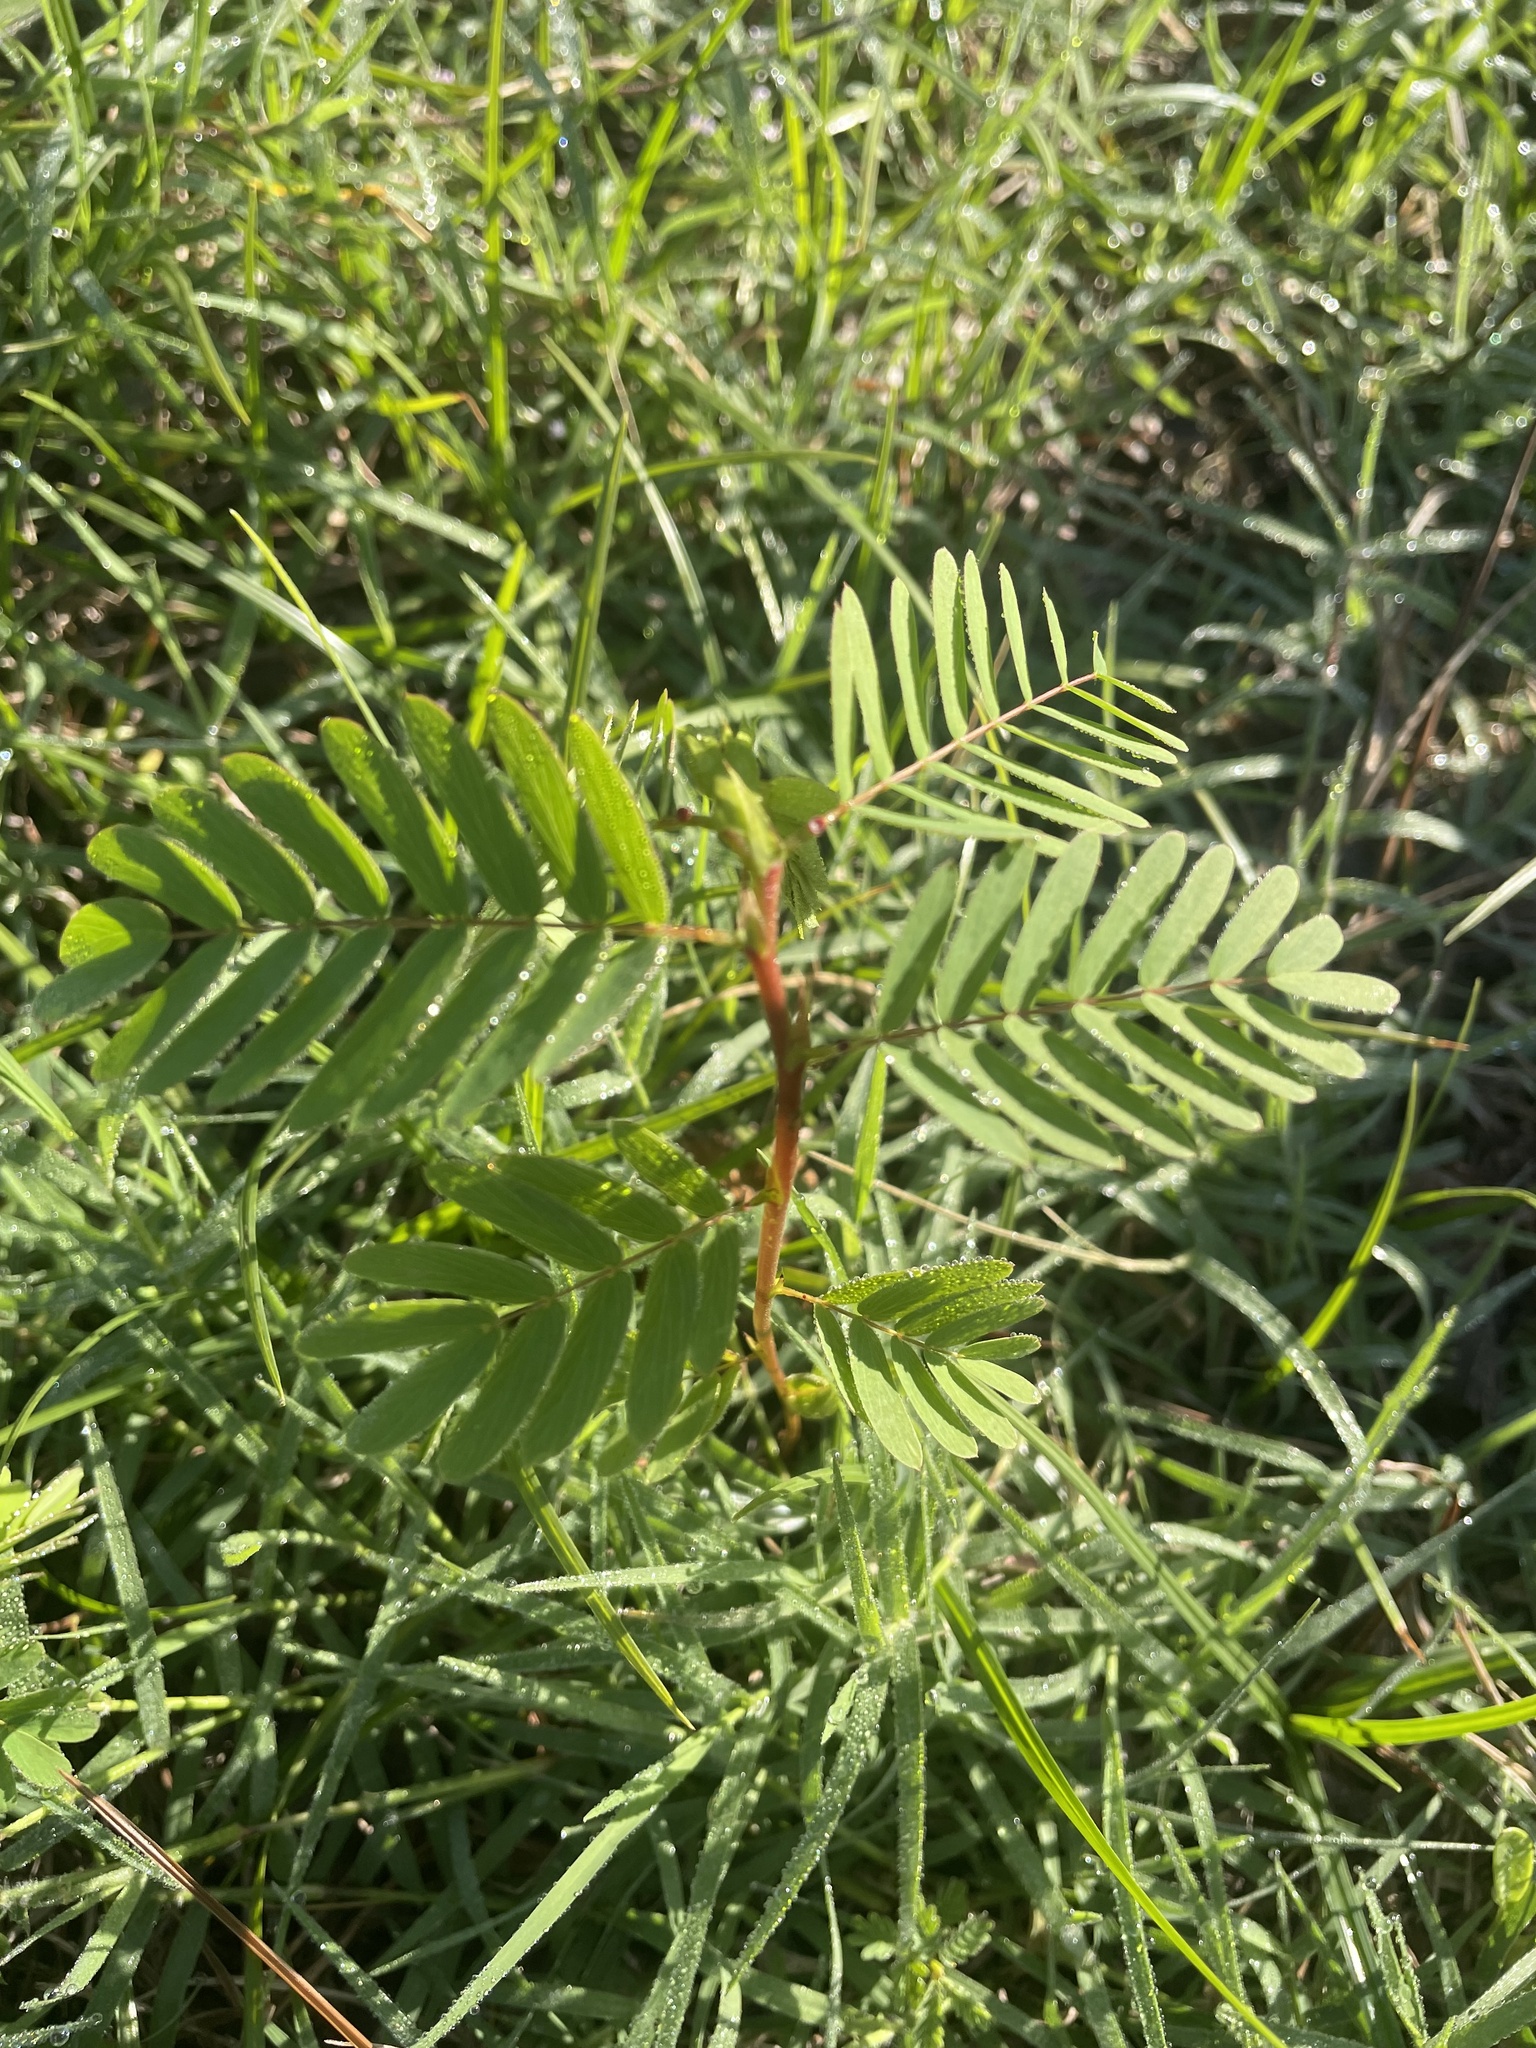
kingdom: Plantae
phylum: Tracheophyta
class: Magnoliopsida
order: Fabales
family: Fabaceae
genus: Chamaecrista
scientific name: Chamaecrista fasciculata
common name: Golden cassia
